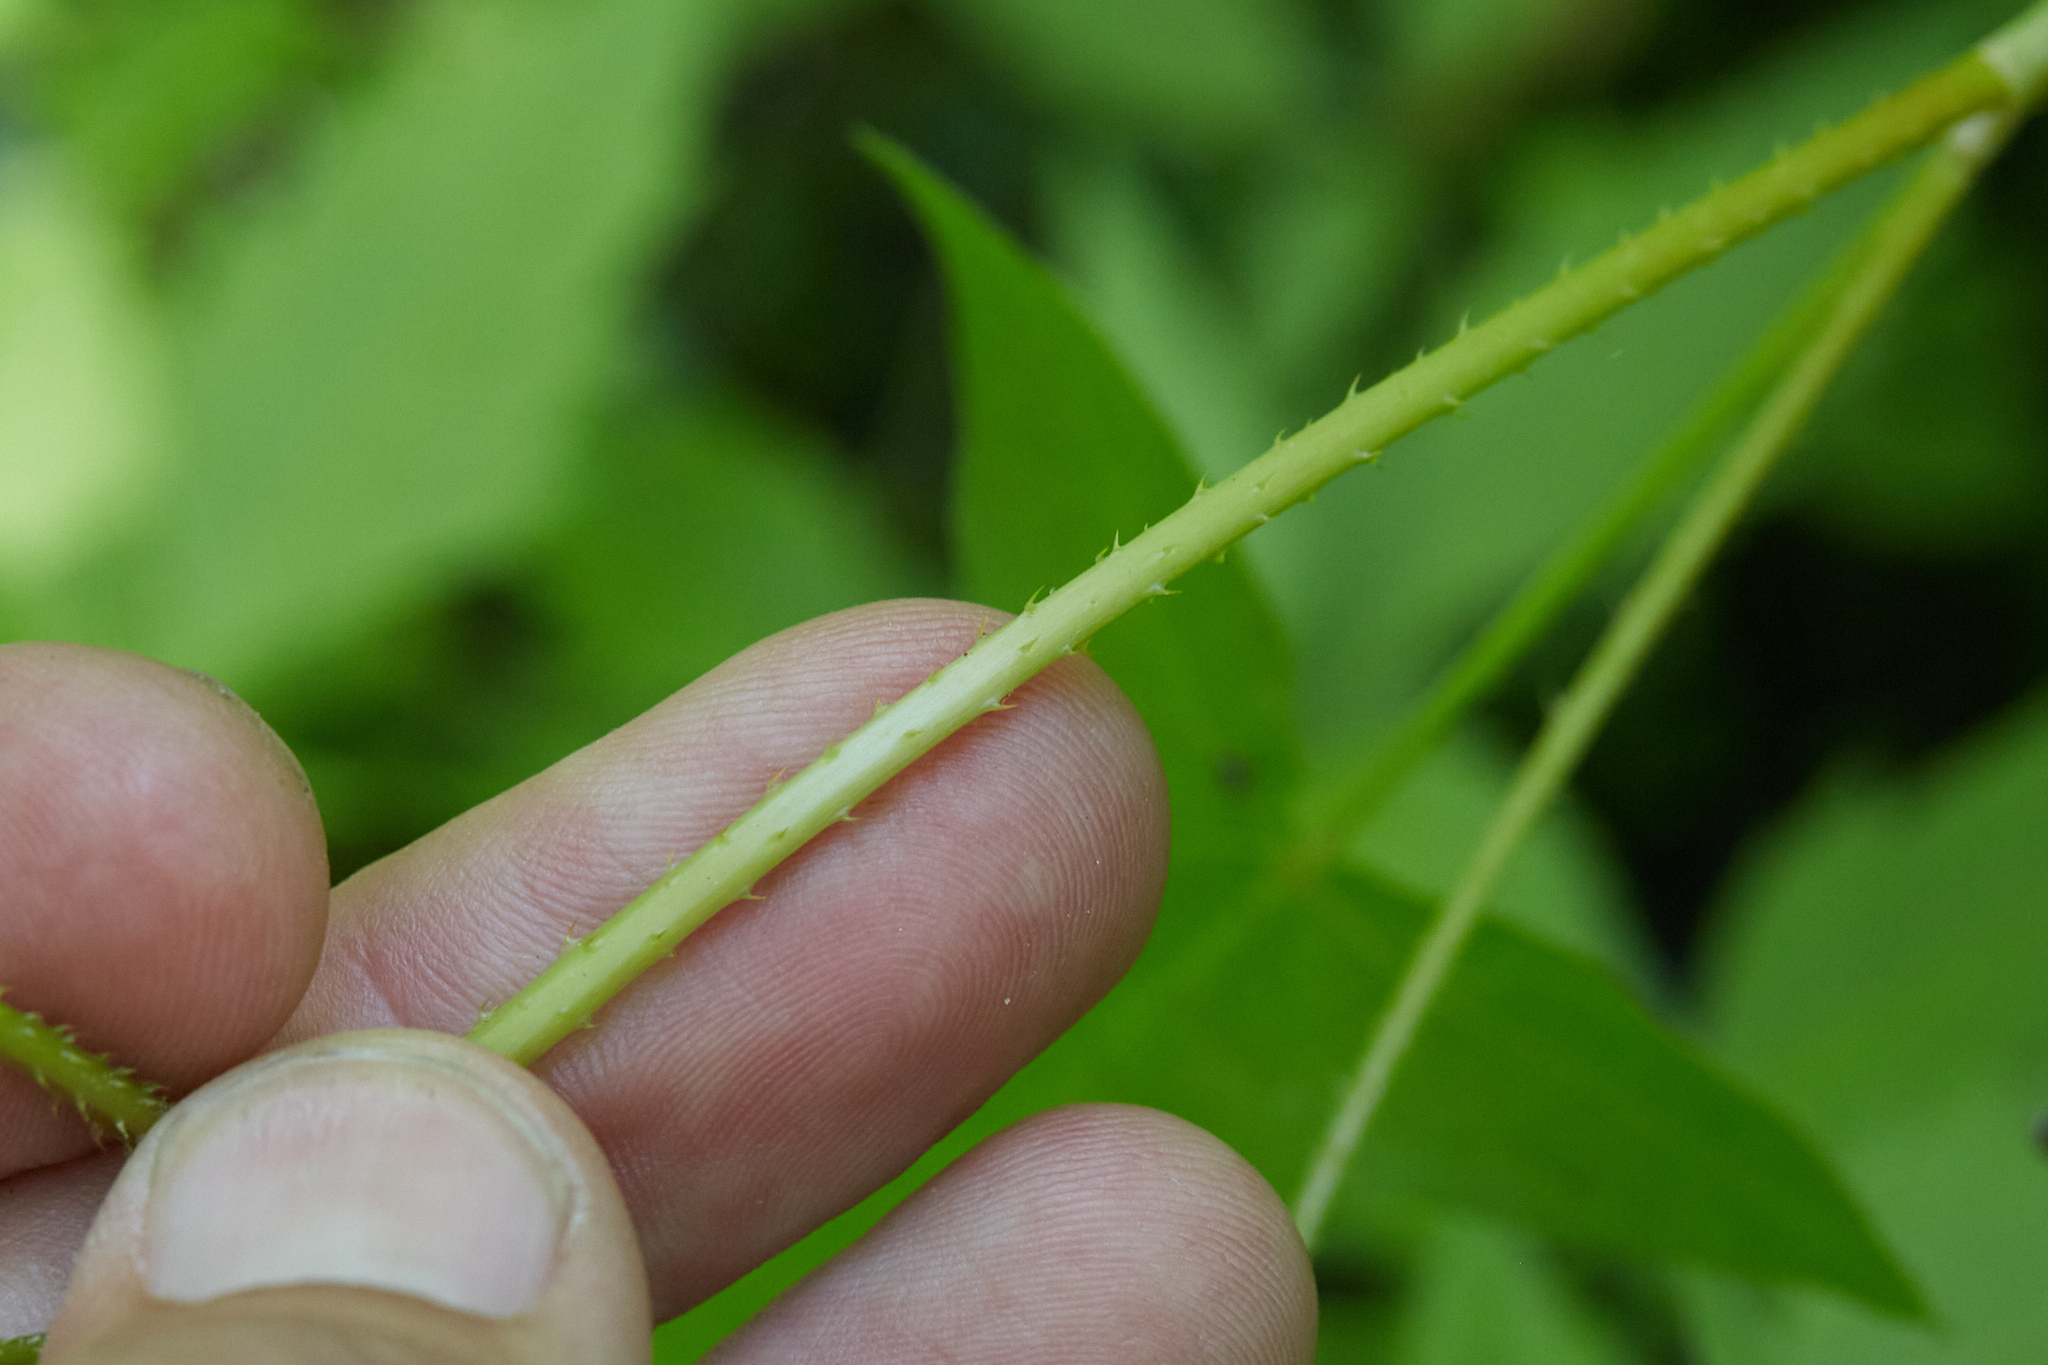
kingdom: Plantae
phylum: Tracheophyta
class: Magnoliopsida
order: Caryophyllales
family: Polygonaceae
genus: Persicaria
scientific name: Persicaria arifolia
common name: Halberd-leaved tear-thumb
